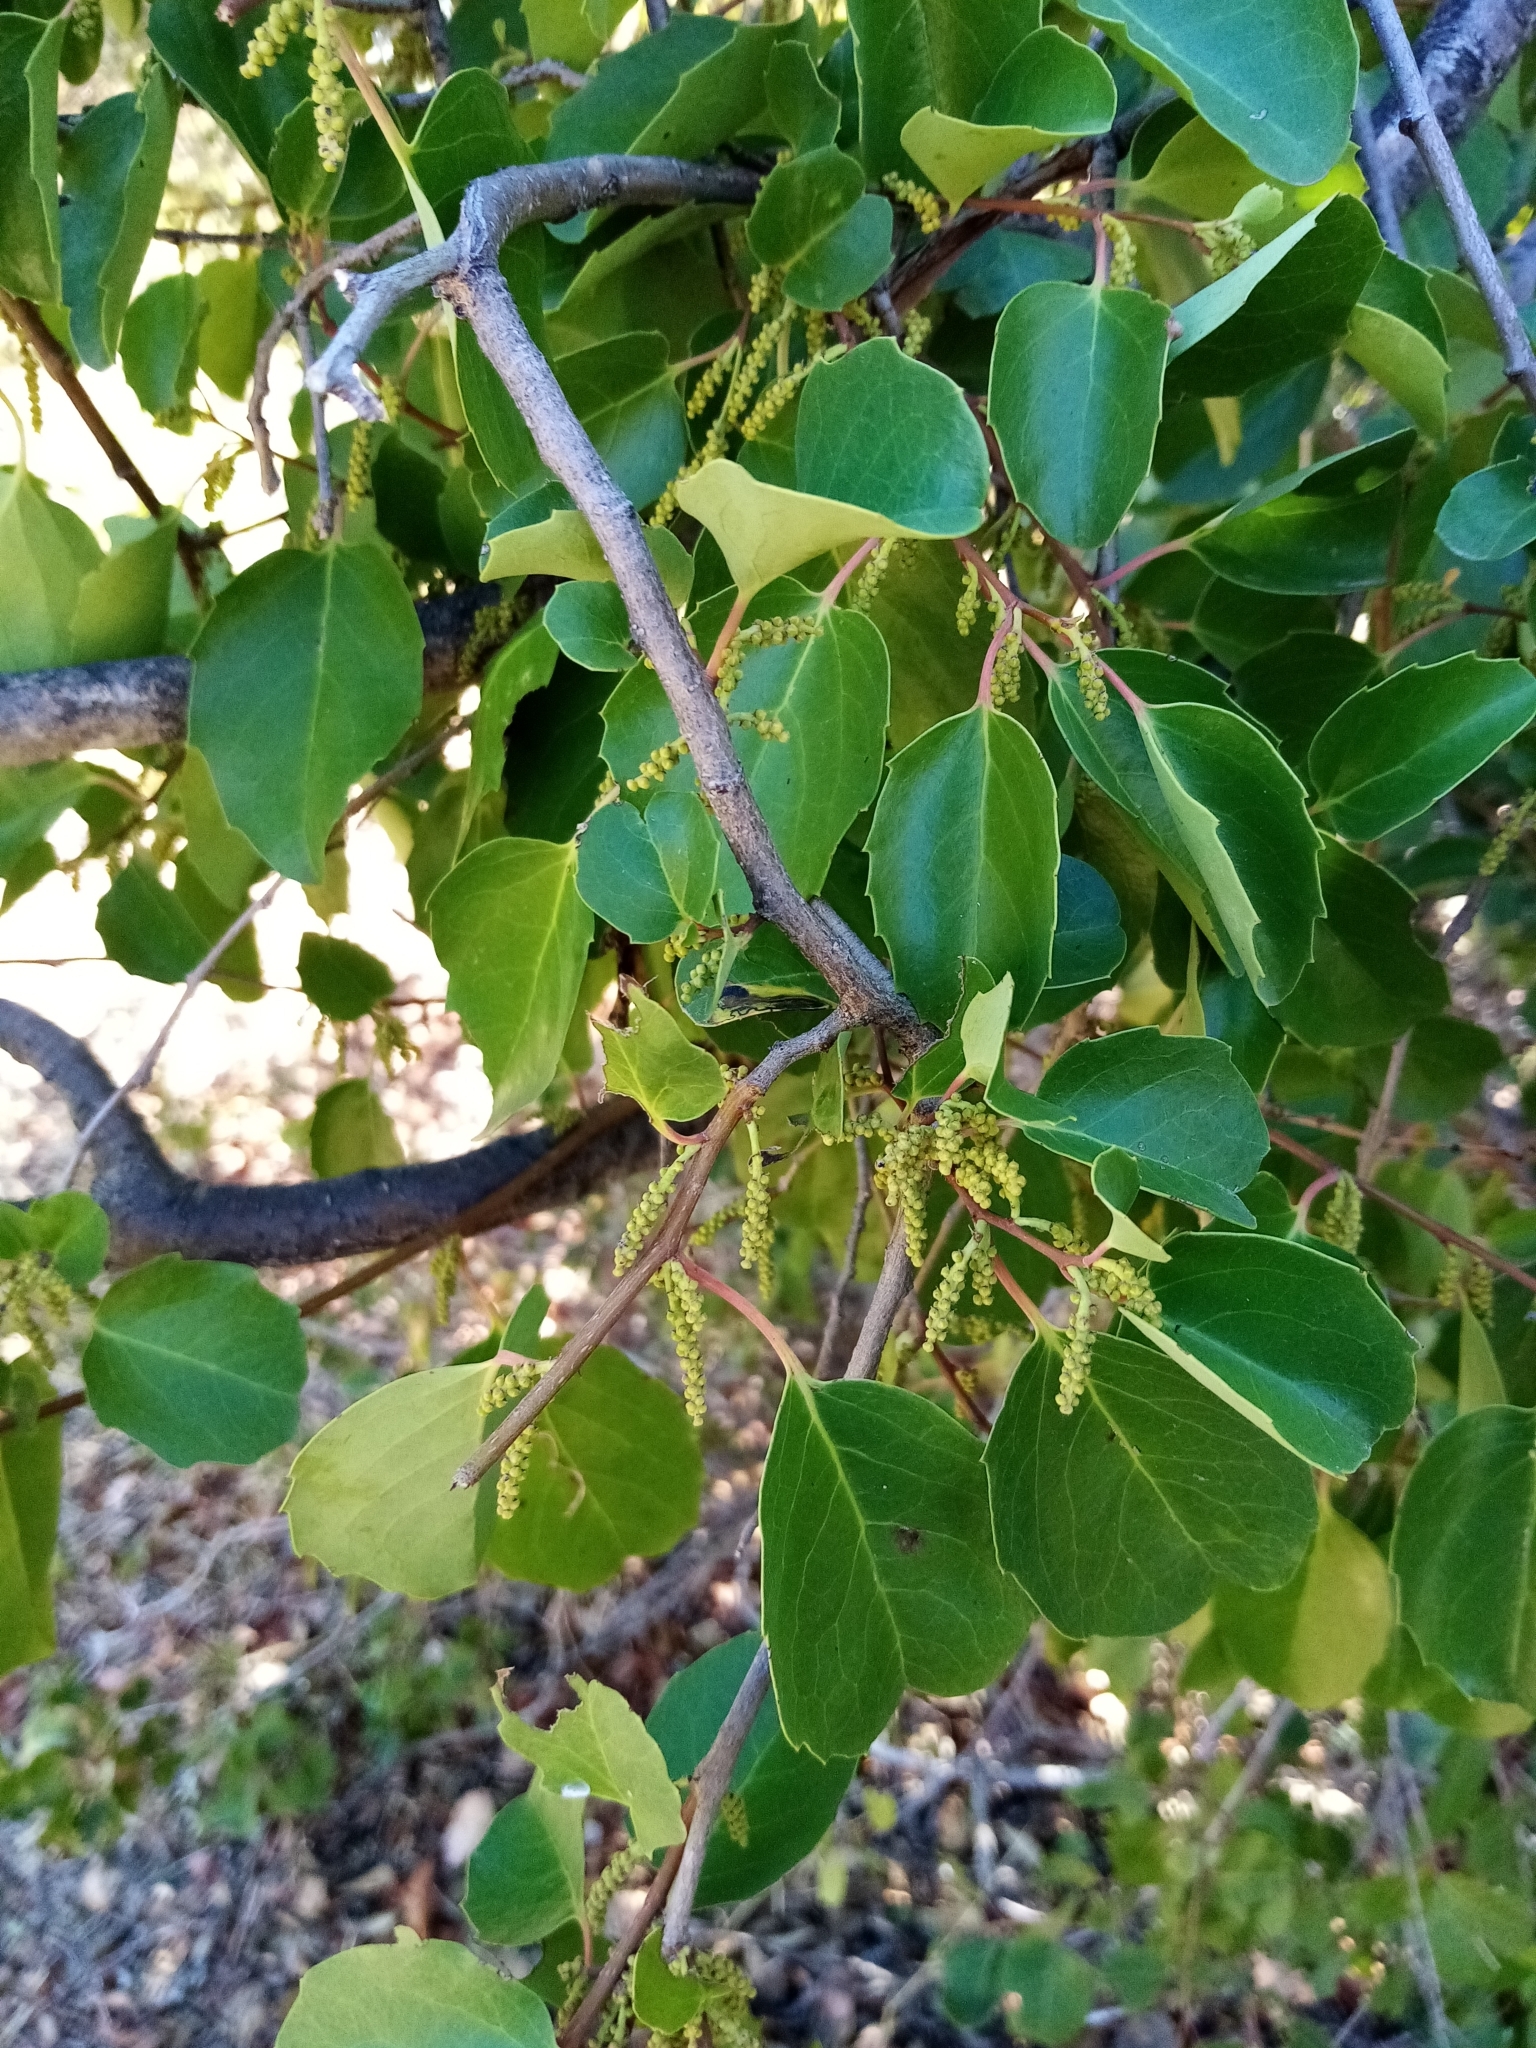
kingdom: Plantae
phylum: Tracheophyta
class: Magnoliopsida
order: Malpighiales
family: Salicaceae
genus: Azara
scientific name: Azara petiolaris
